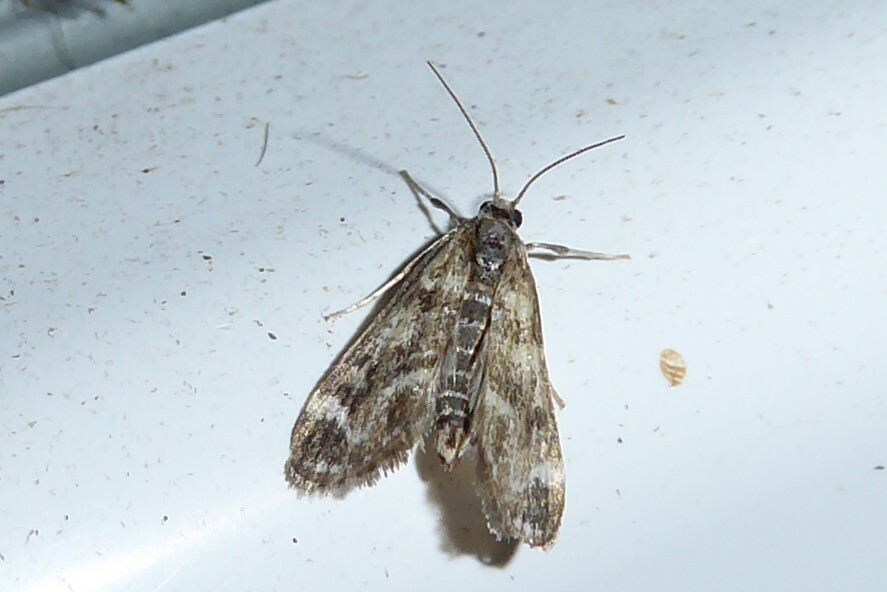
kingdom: Animalia
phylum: Arthropoda
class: Insecta
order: Lepidoptera
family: Crambidae
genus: Hygraula
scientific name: Hygraula nitens
